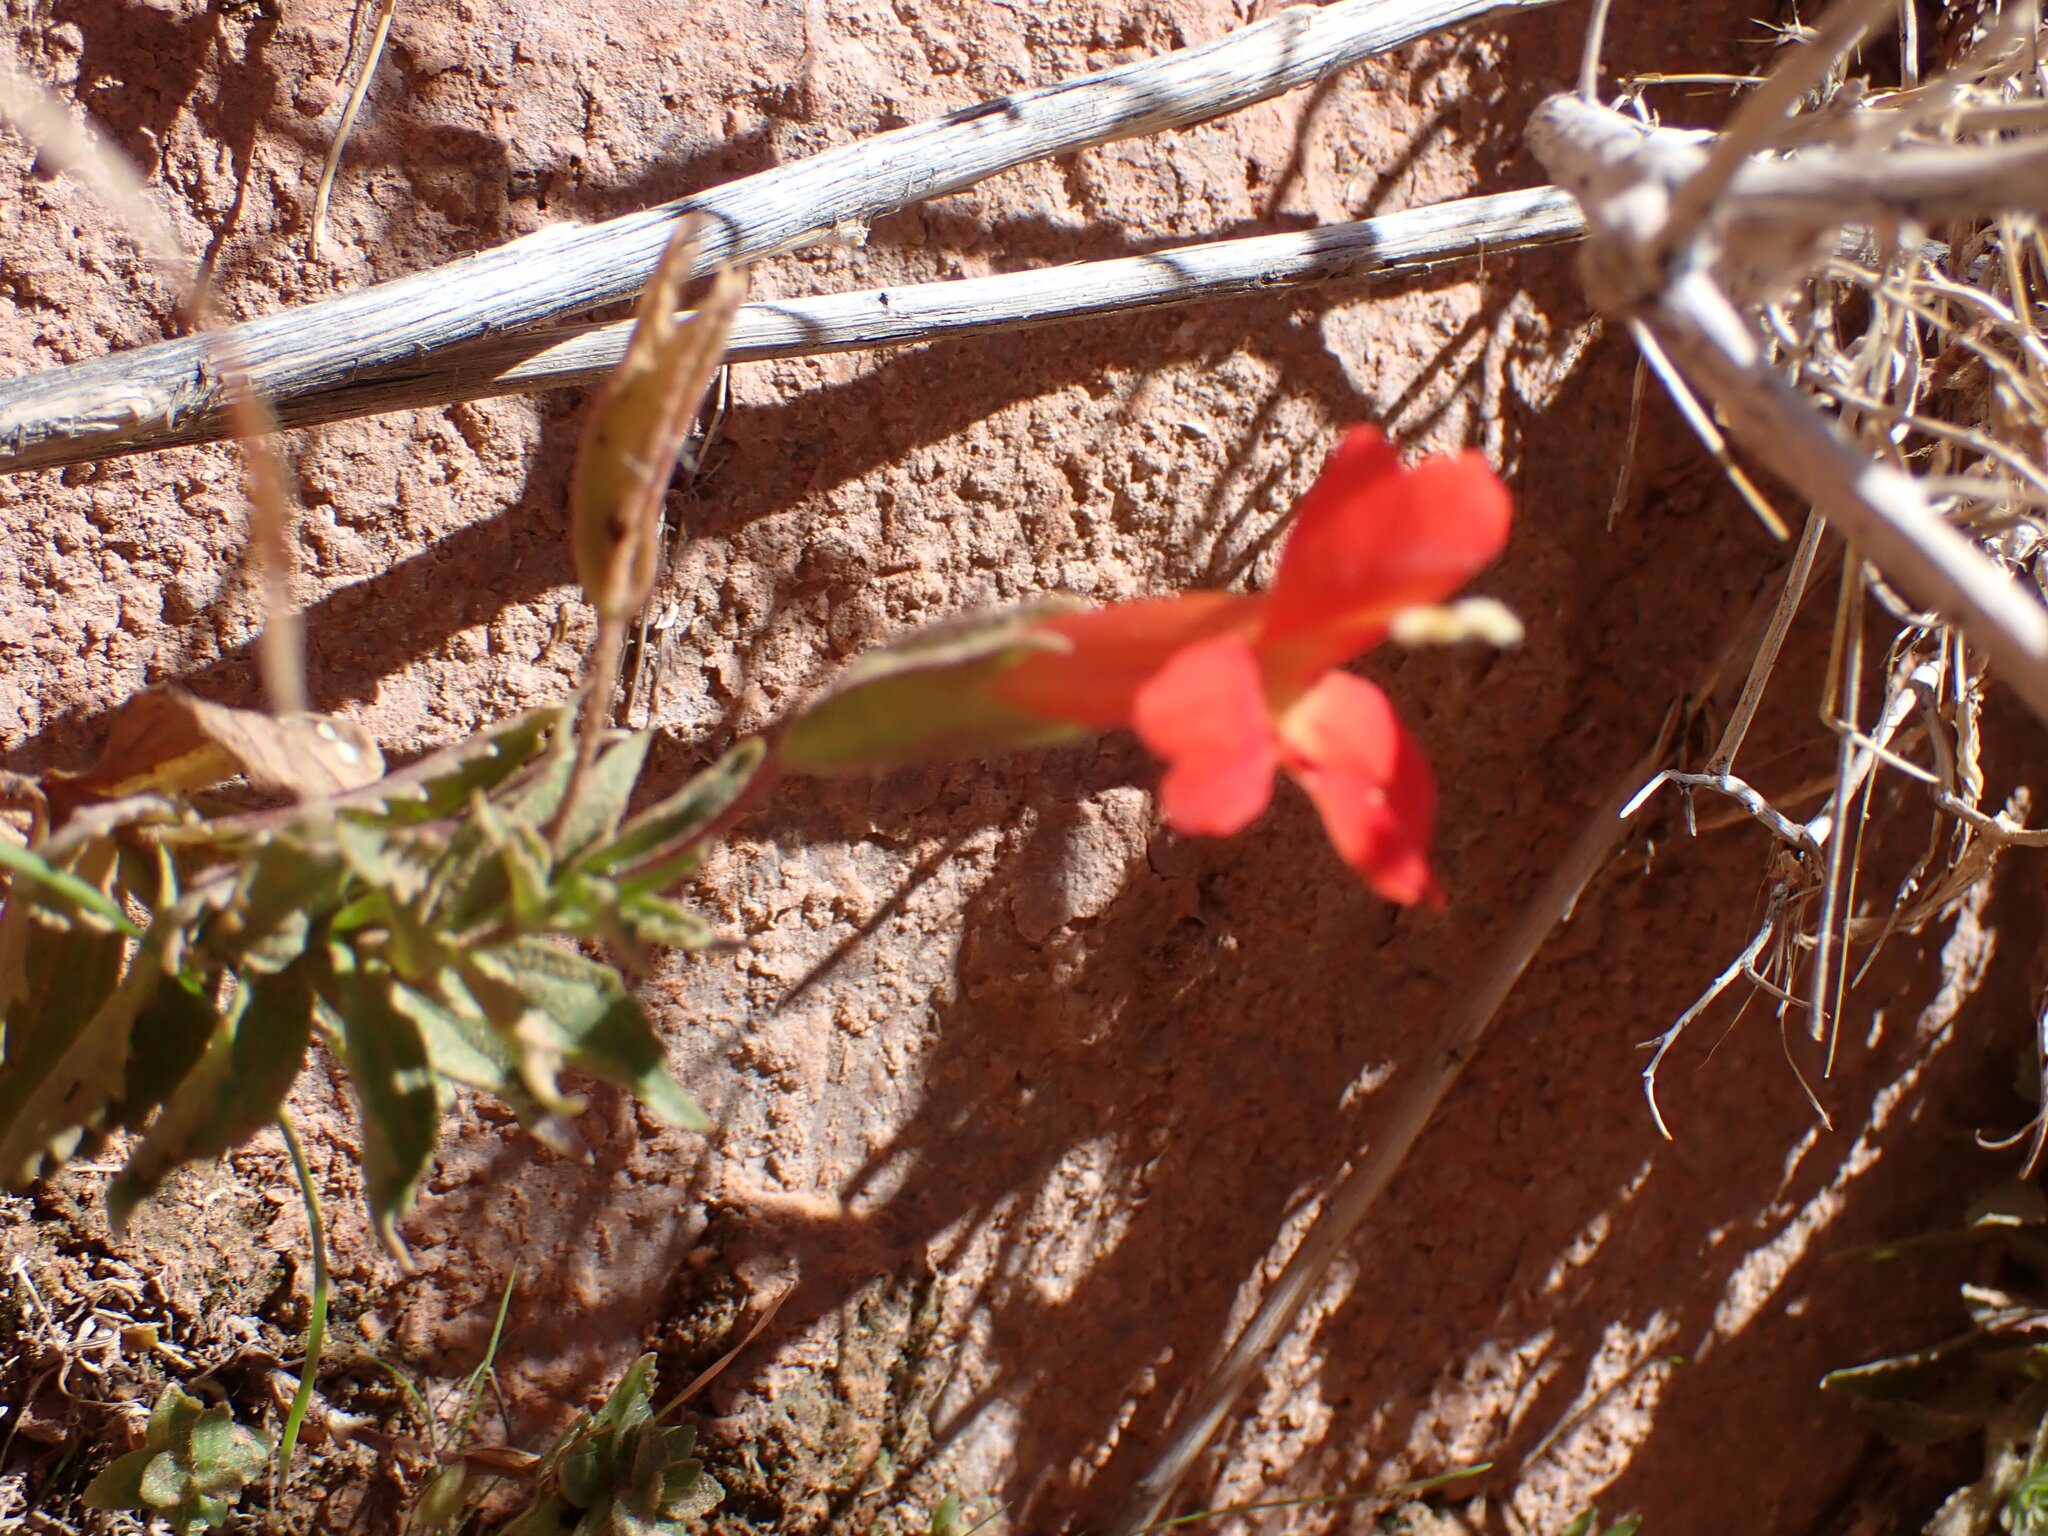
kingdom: Plantae
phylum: Tracheophyta
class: Magnoliopsida
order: Lamiales
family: Phrymaceae
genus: Erythranthe
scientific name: Erythranthe eastwoodiae
